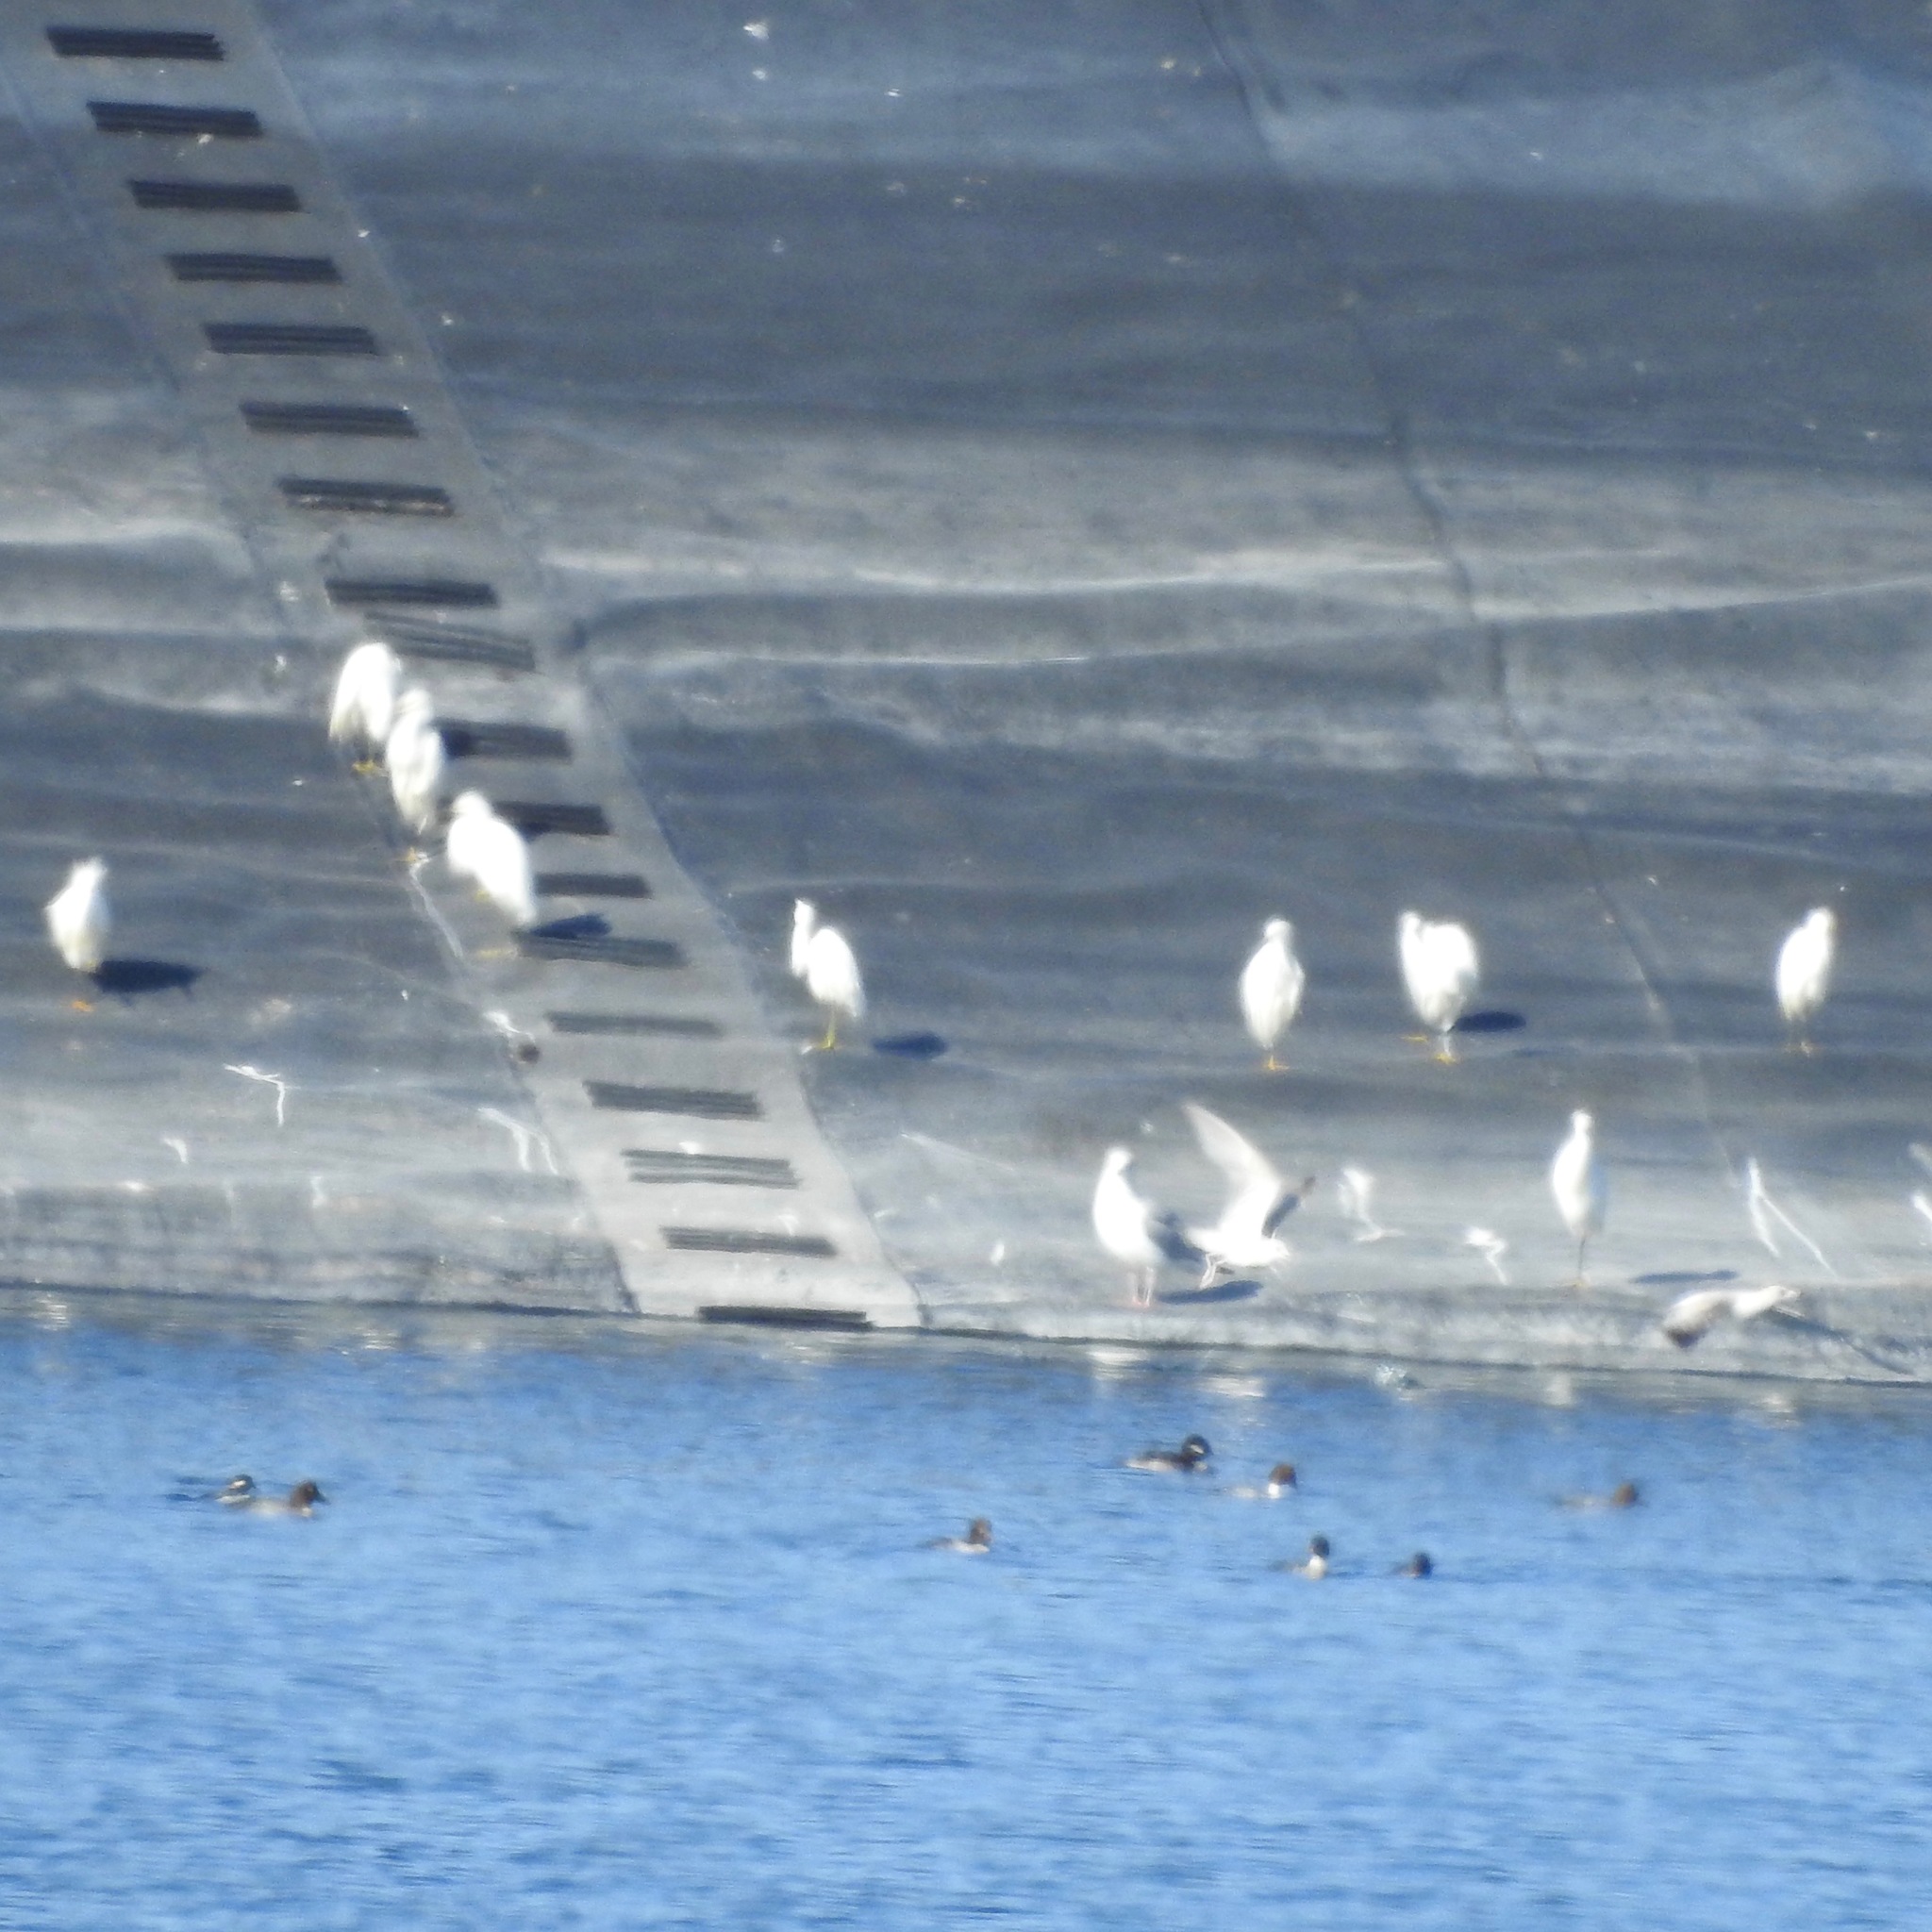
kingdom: Animalia
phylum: Chordata
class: Aves
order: Pelecaniformes
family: Ardeidae
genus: Egretta
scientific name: Egretta thula
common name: Snowy egret
